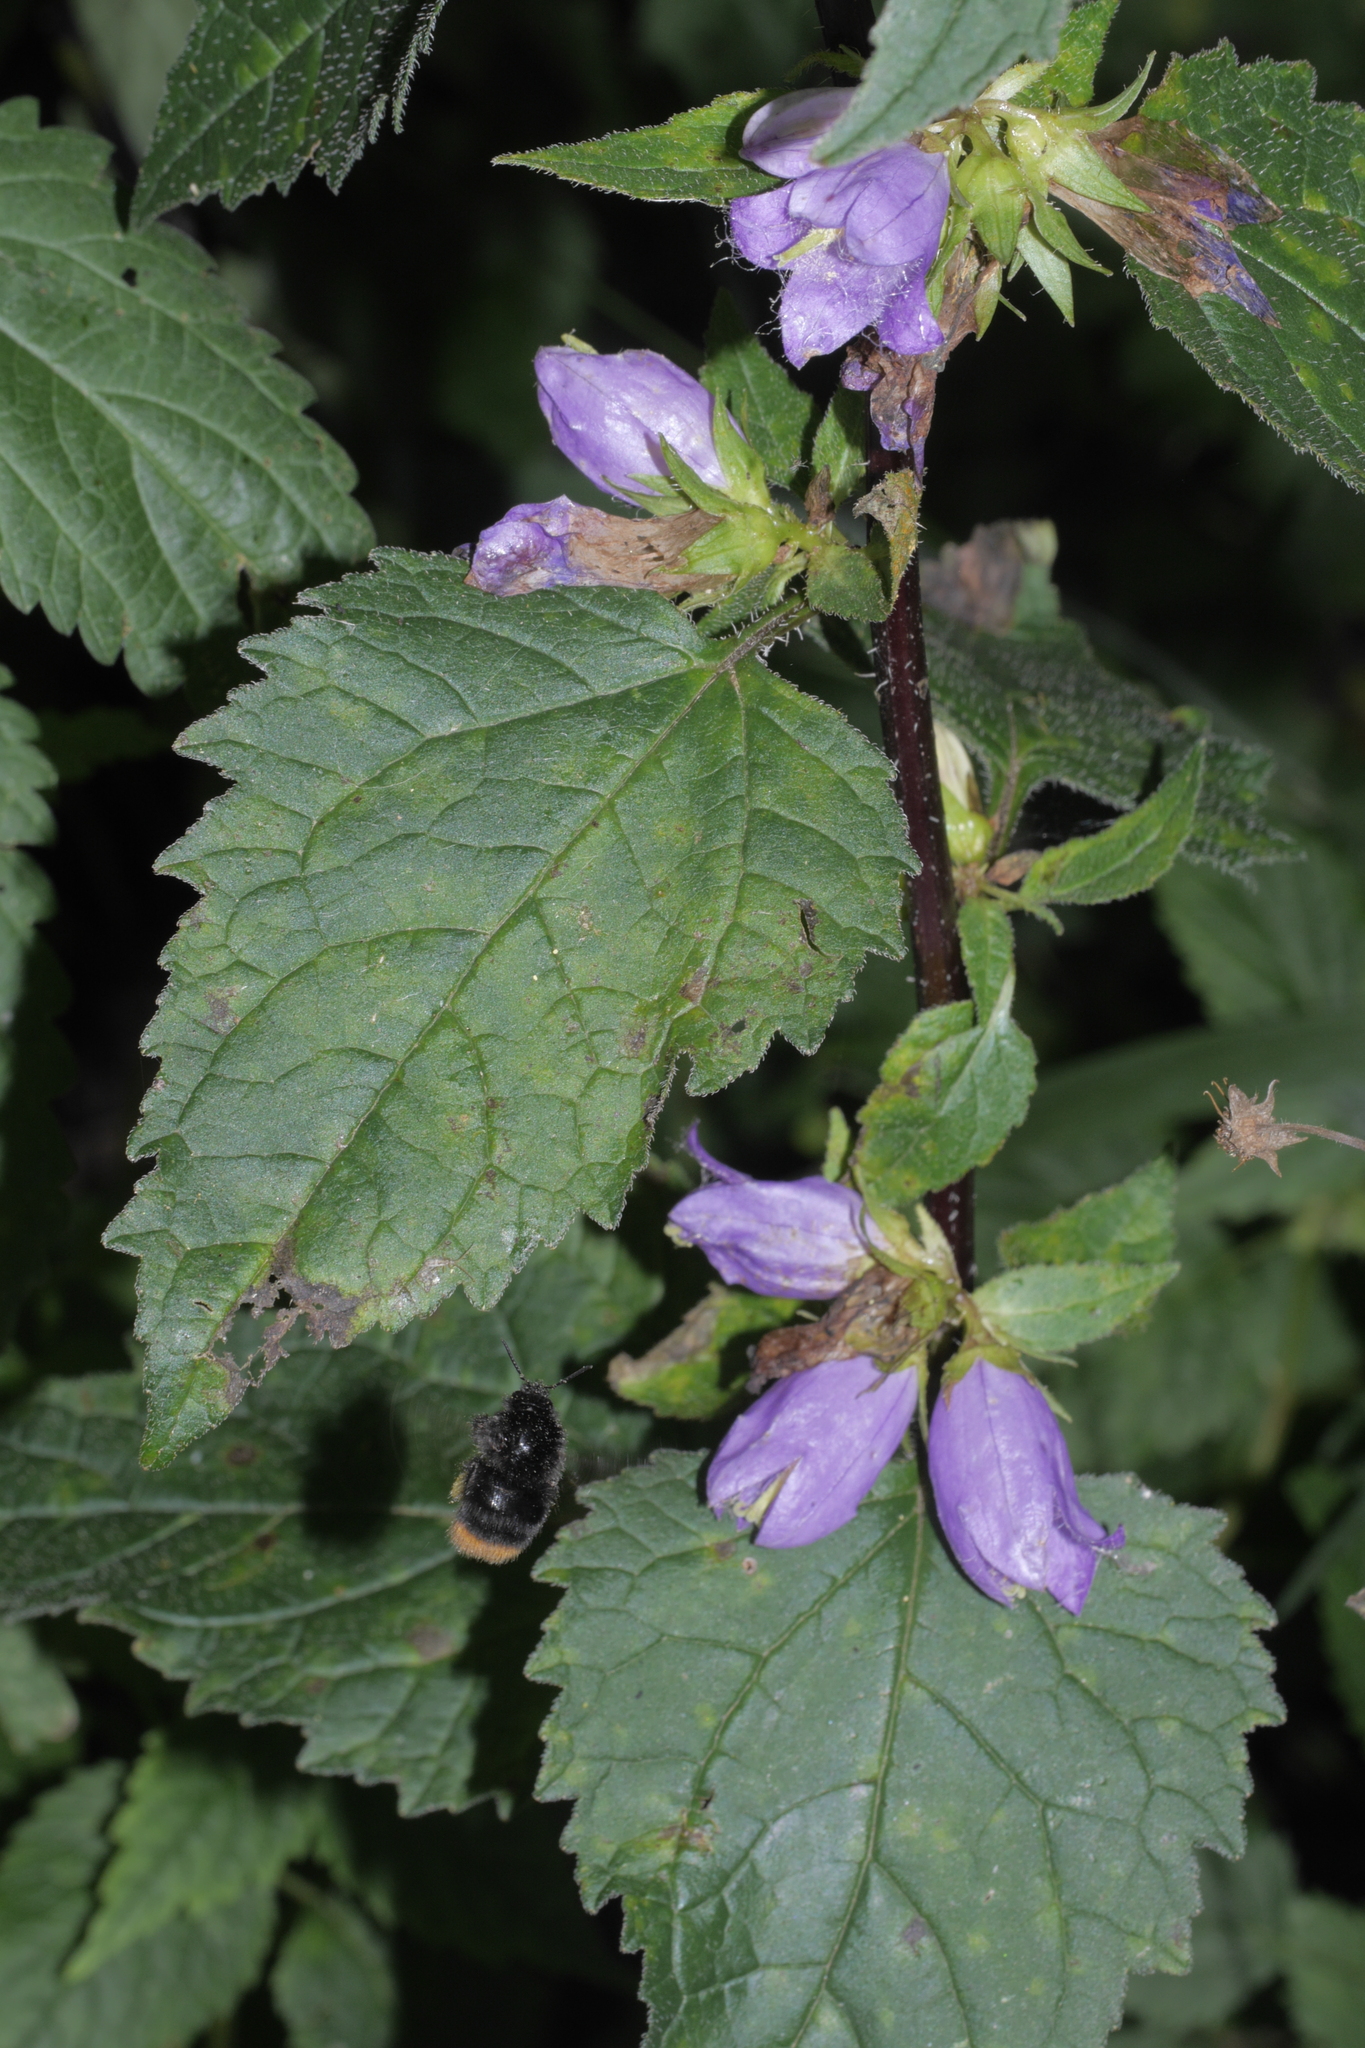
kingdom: Plantae
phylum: Tracheophyta
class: Magnoliopsida
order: Asterales
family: Campanulaceae
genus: Campanula
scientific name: Campanula trachelium
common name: Nettle-leaved bellflower
